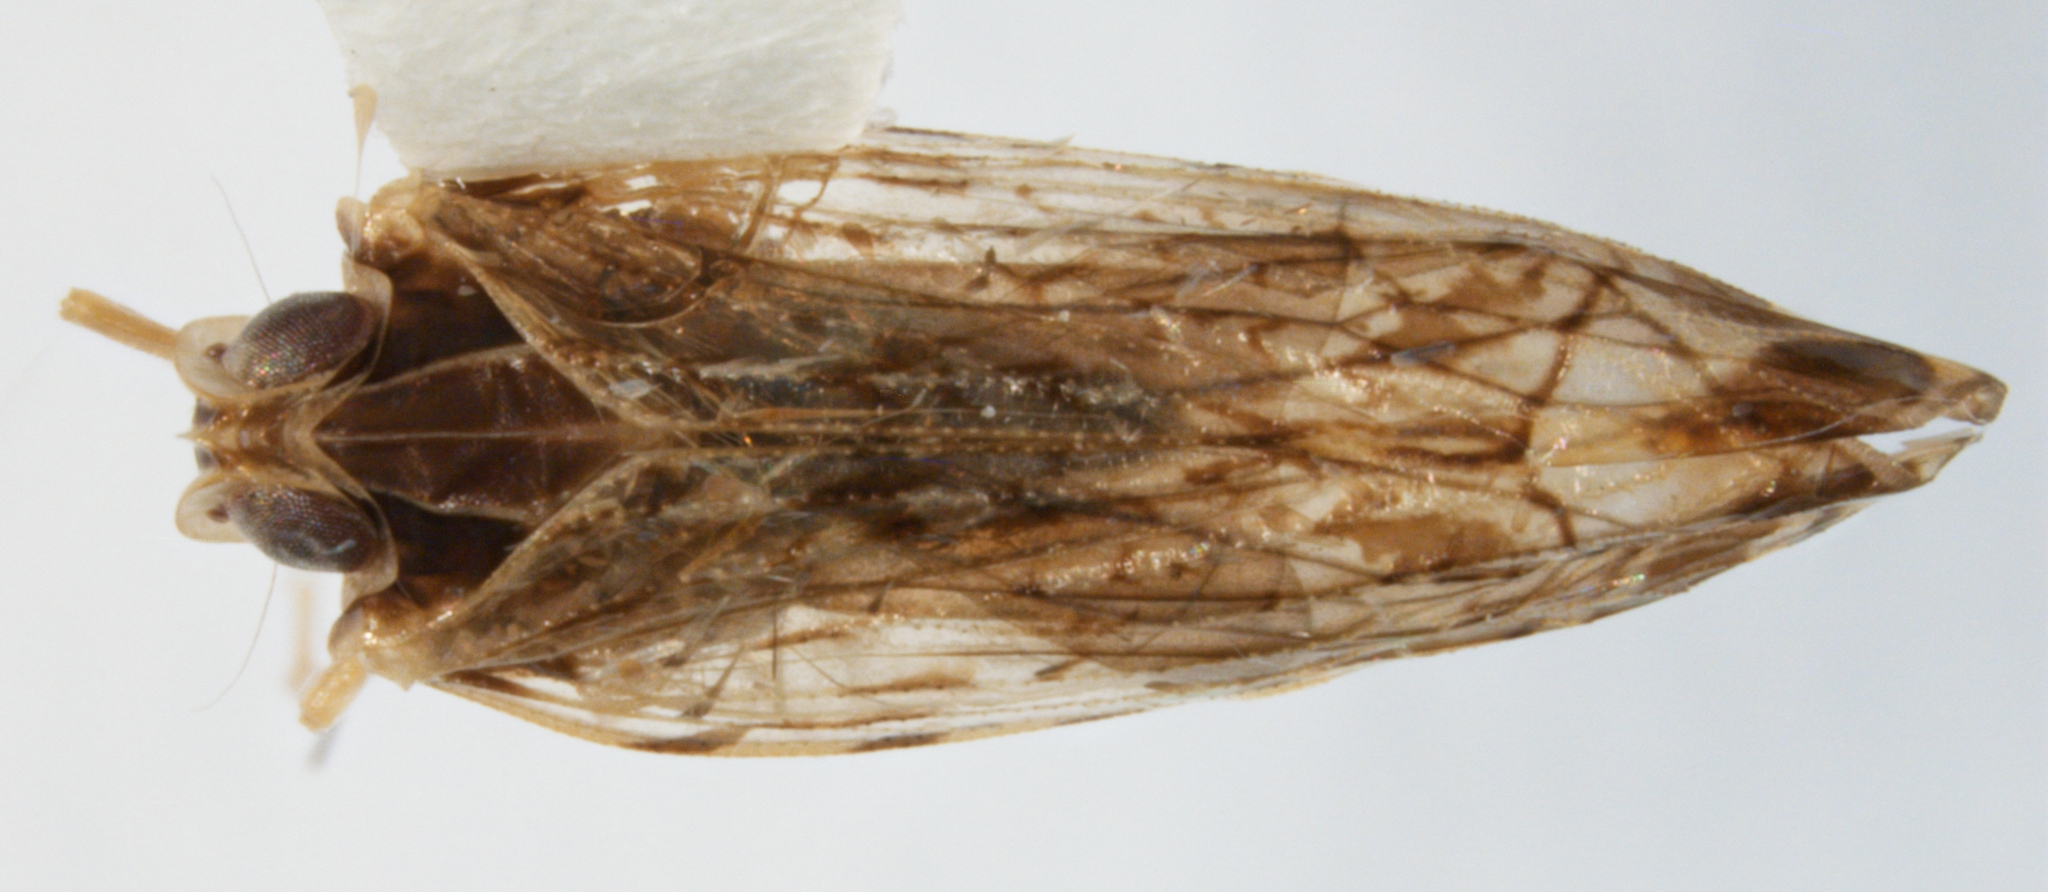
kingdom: Animalia
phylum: Arthropoda
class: Insecta
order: Hemiptera
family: Cixiidae
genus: Cubana
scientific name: Cubana cypassis
